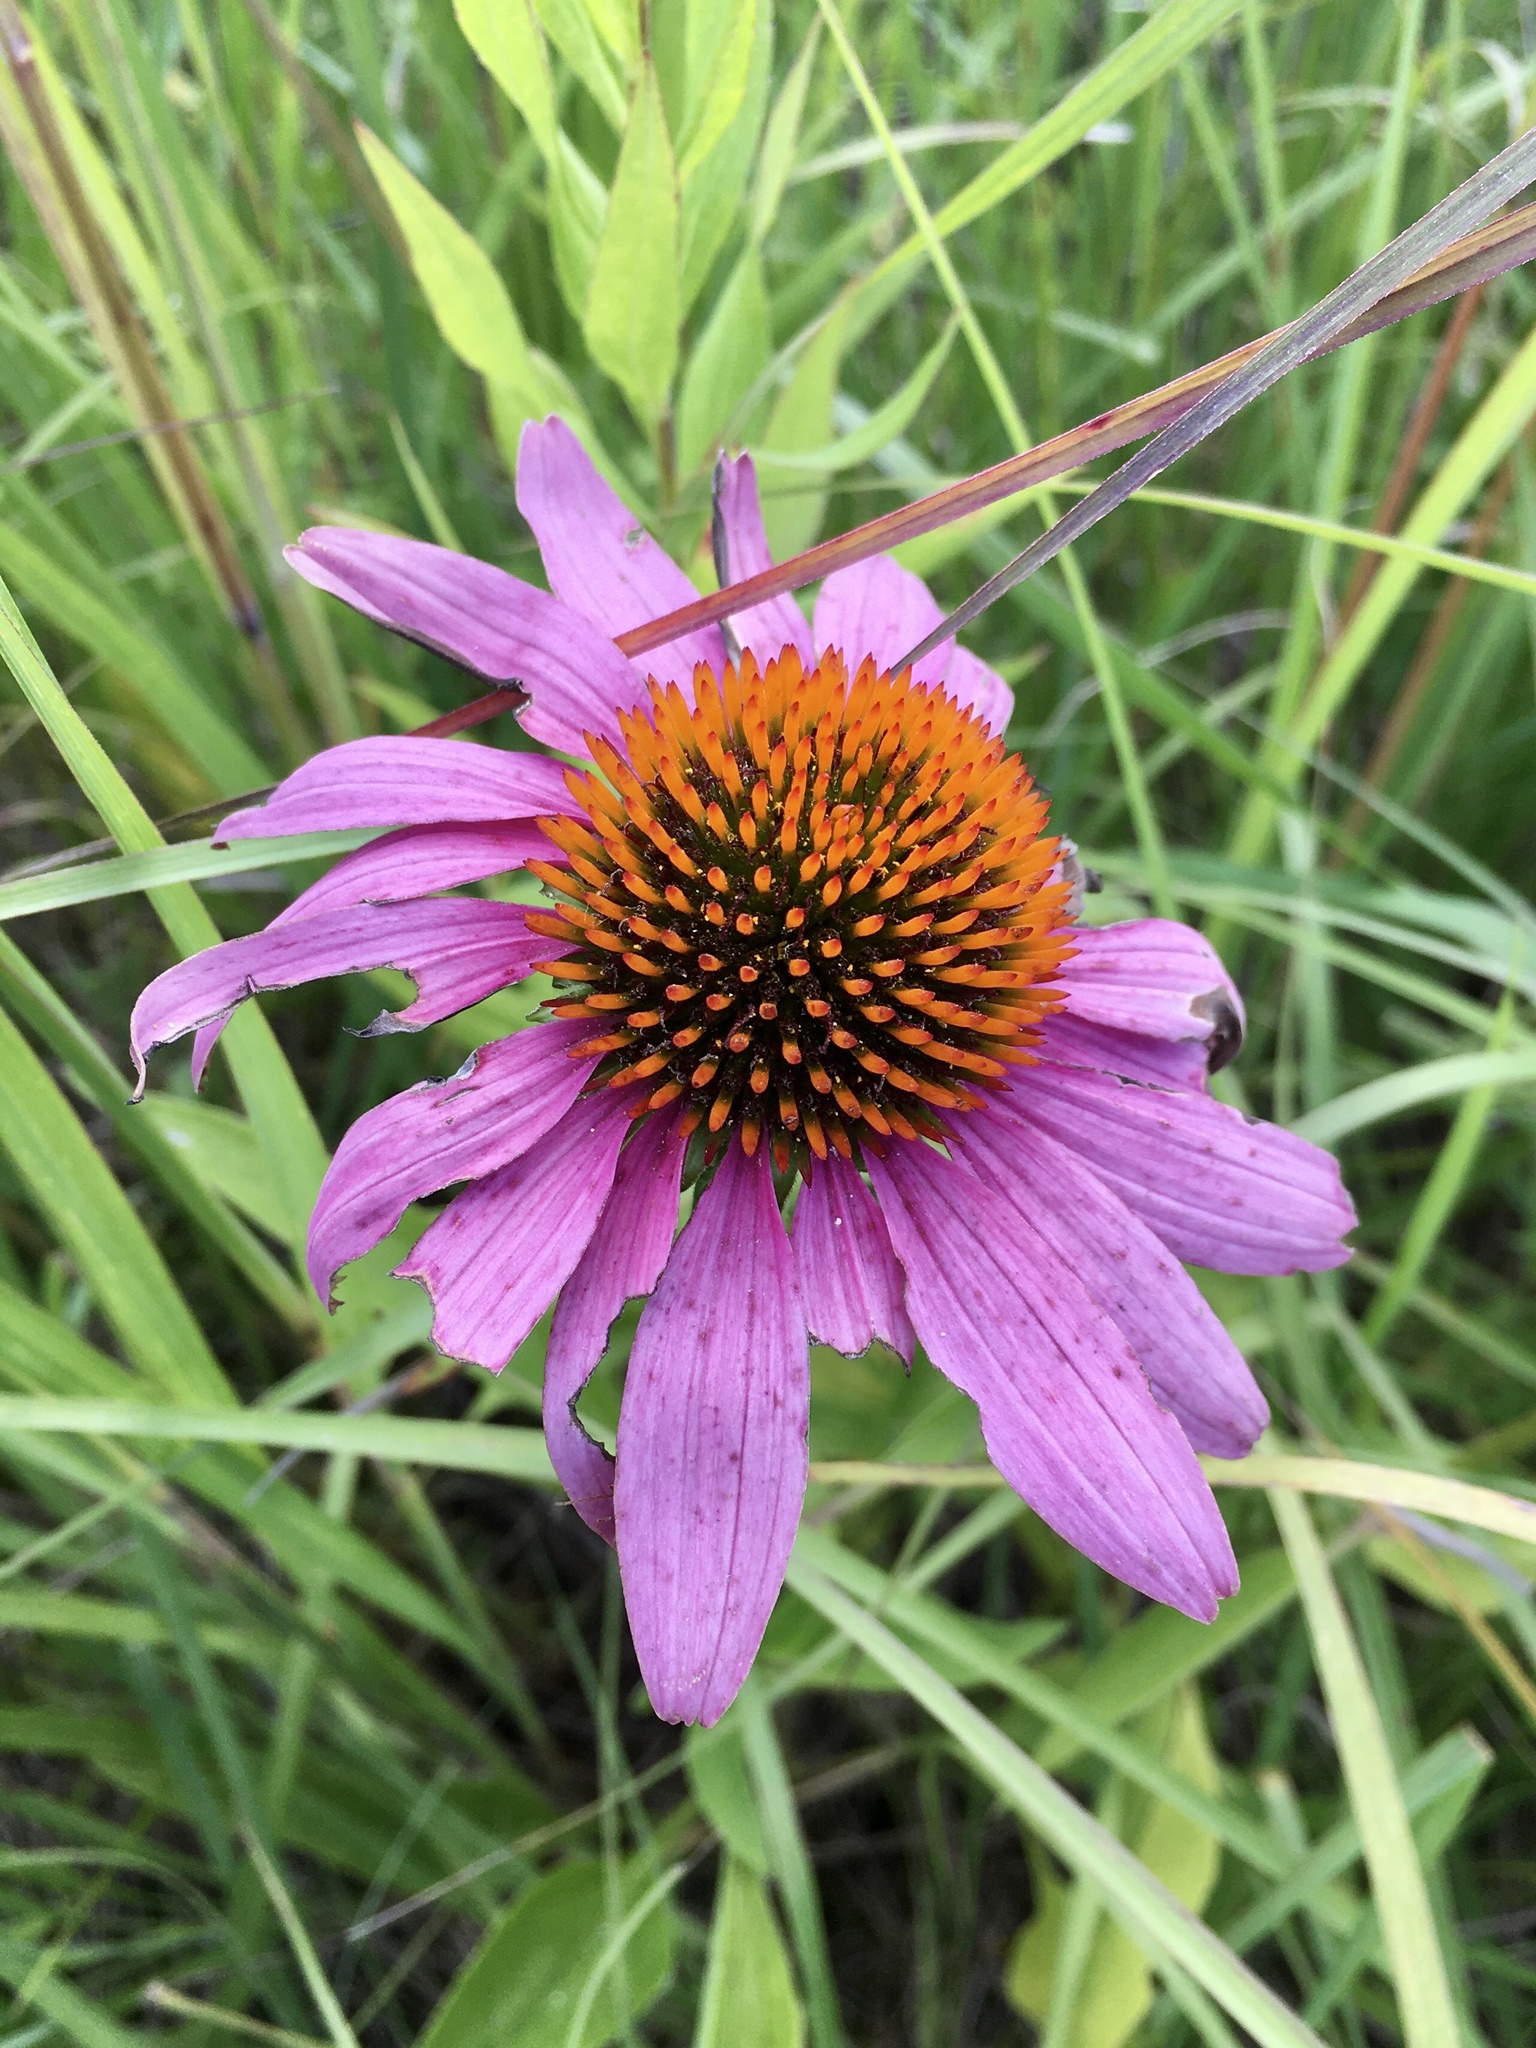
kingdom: Plantae
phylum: Tracheophyta
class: Magnoliopsida
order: Asterales
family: Asteraceae
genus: Echinacea
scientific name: Echinacea purpurea
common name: Broad-leaved purple coneflower
